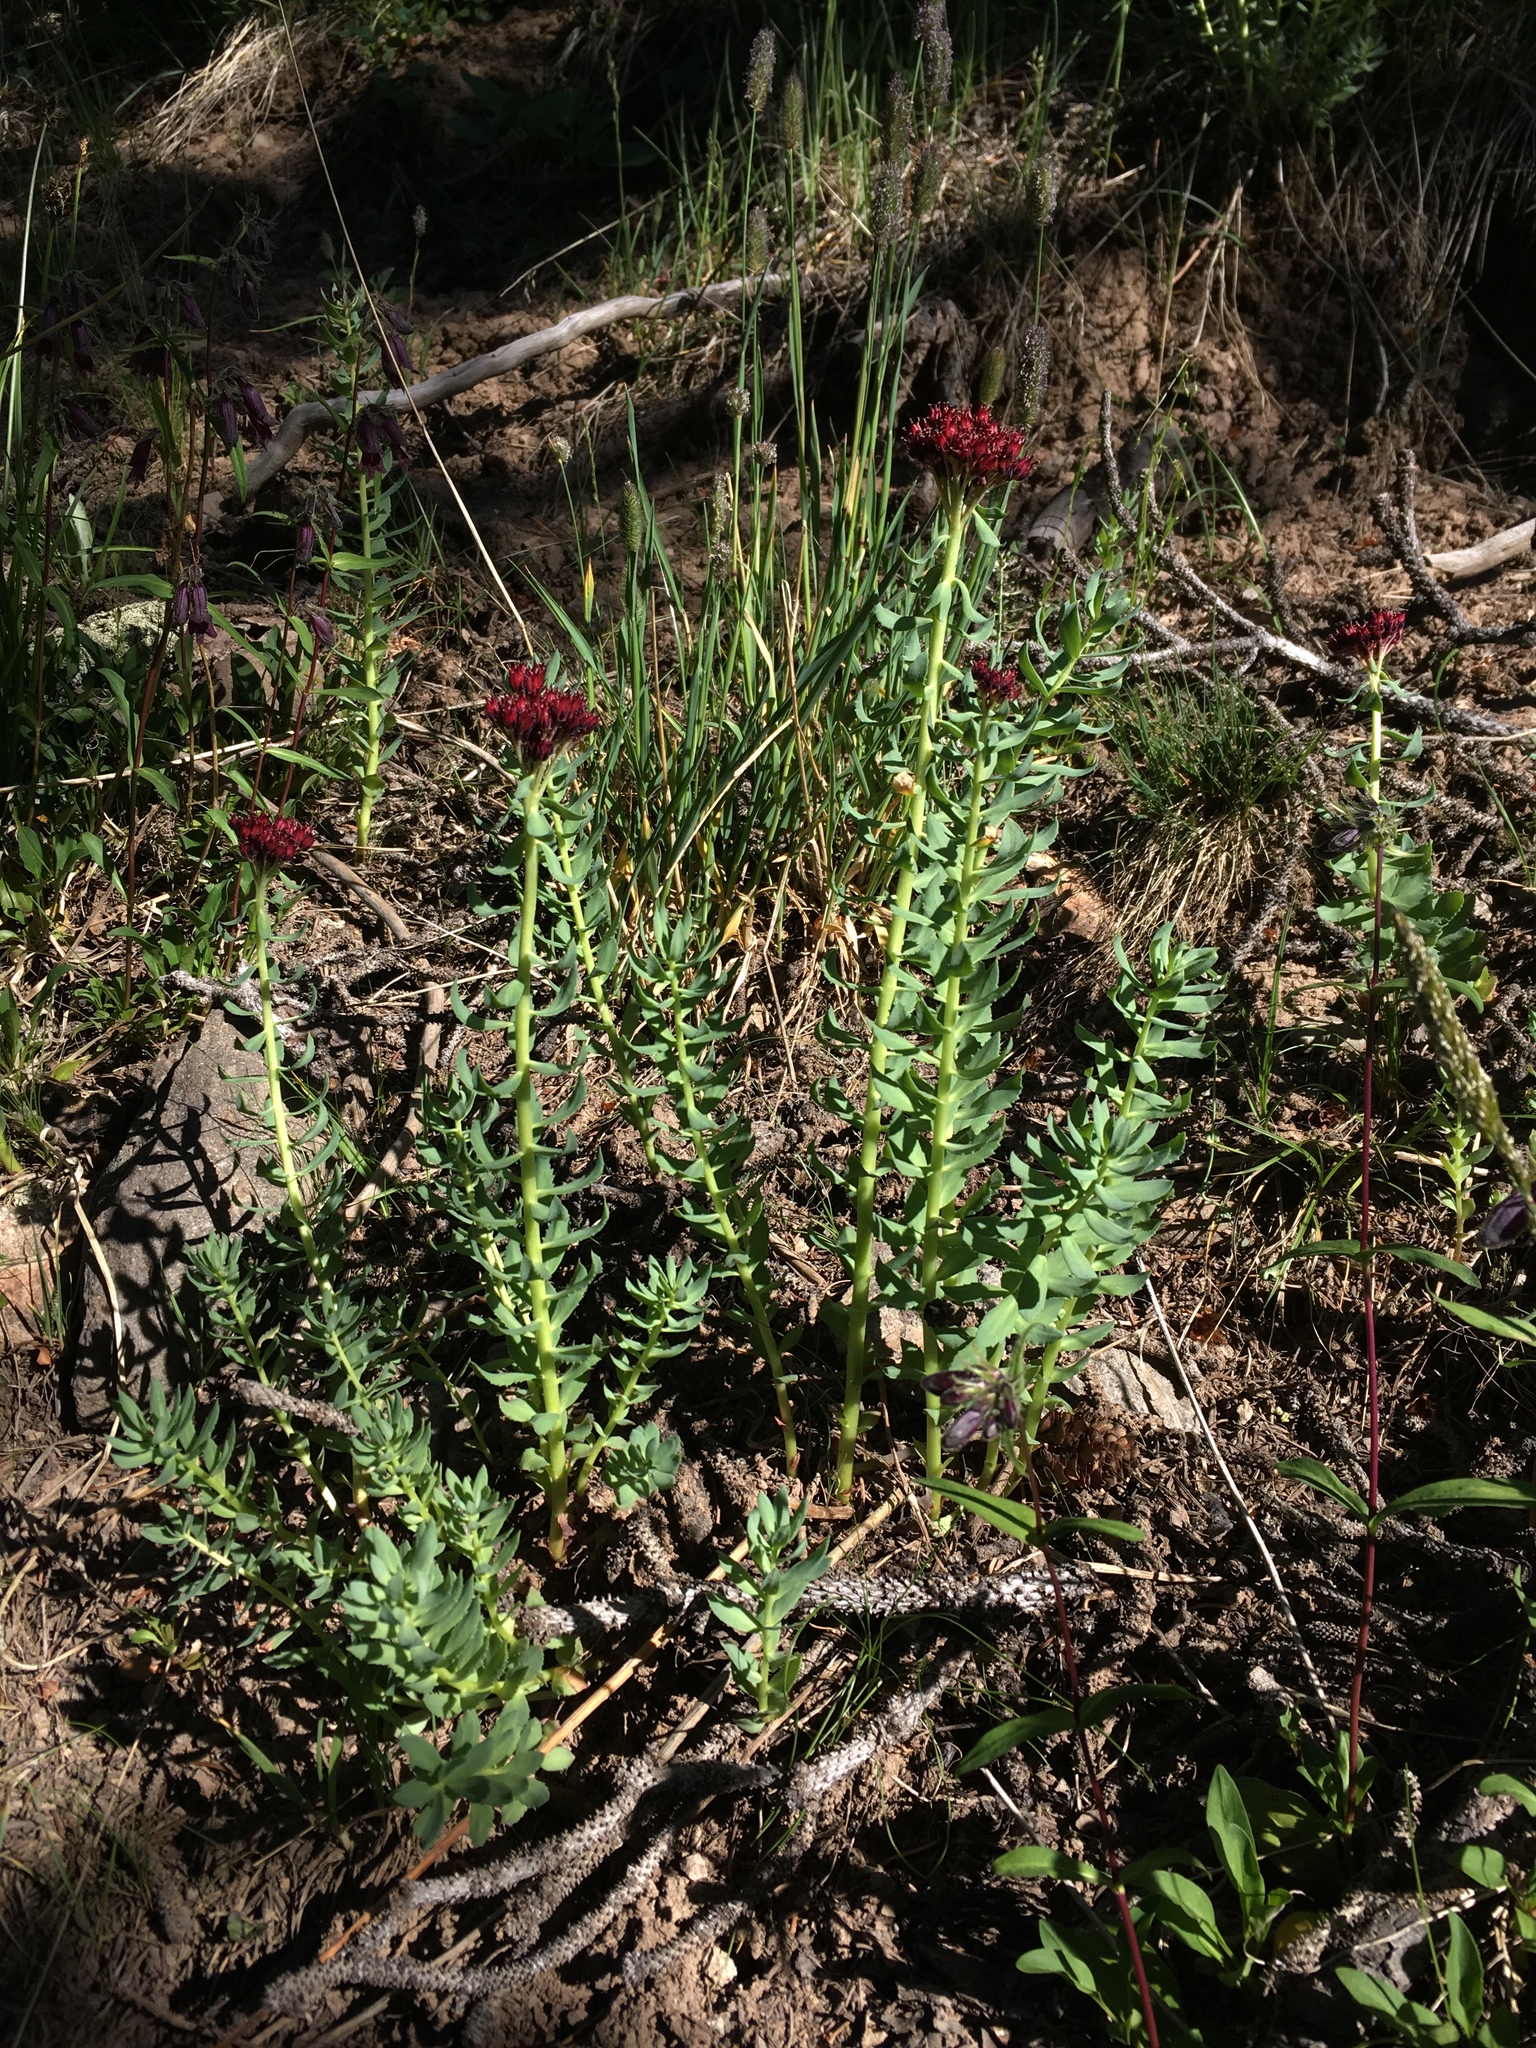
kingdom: Plantae
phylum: Tracheophyta
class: Magnoliopsida
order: Saxifragales
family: Crassulaceae
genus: Rhodiola
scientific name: Rhodiola integrifolia
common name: Western roseroot
